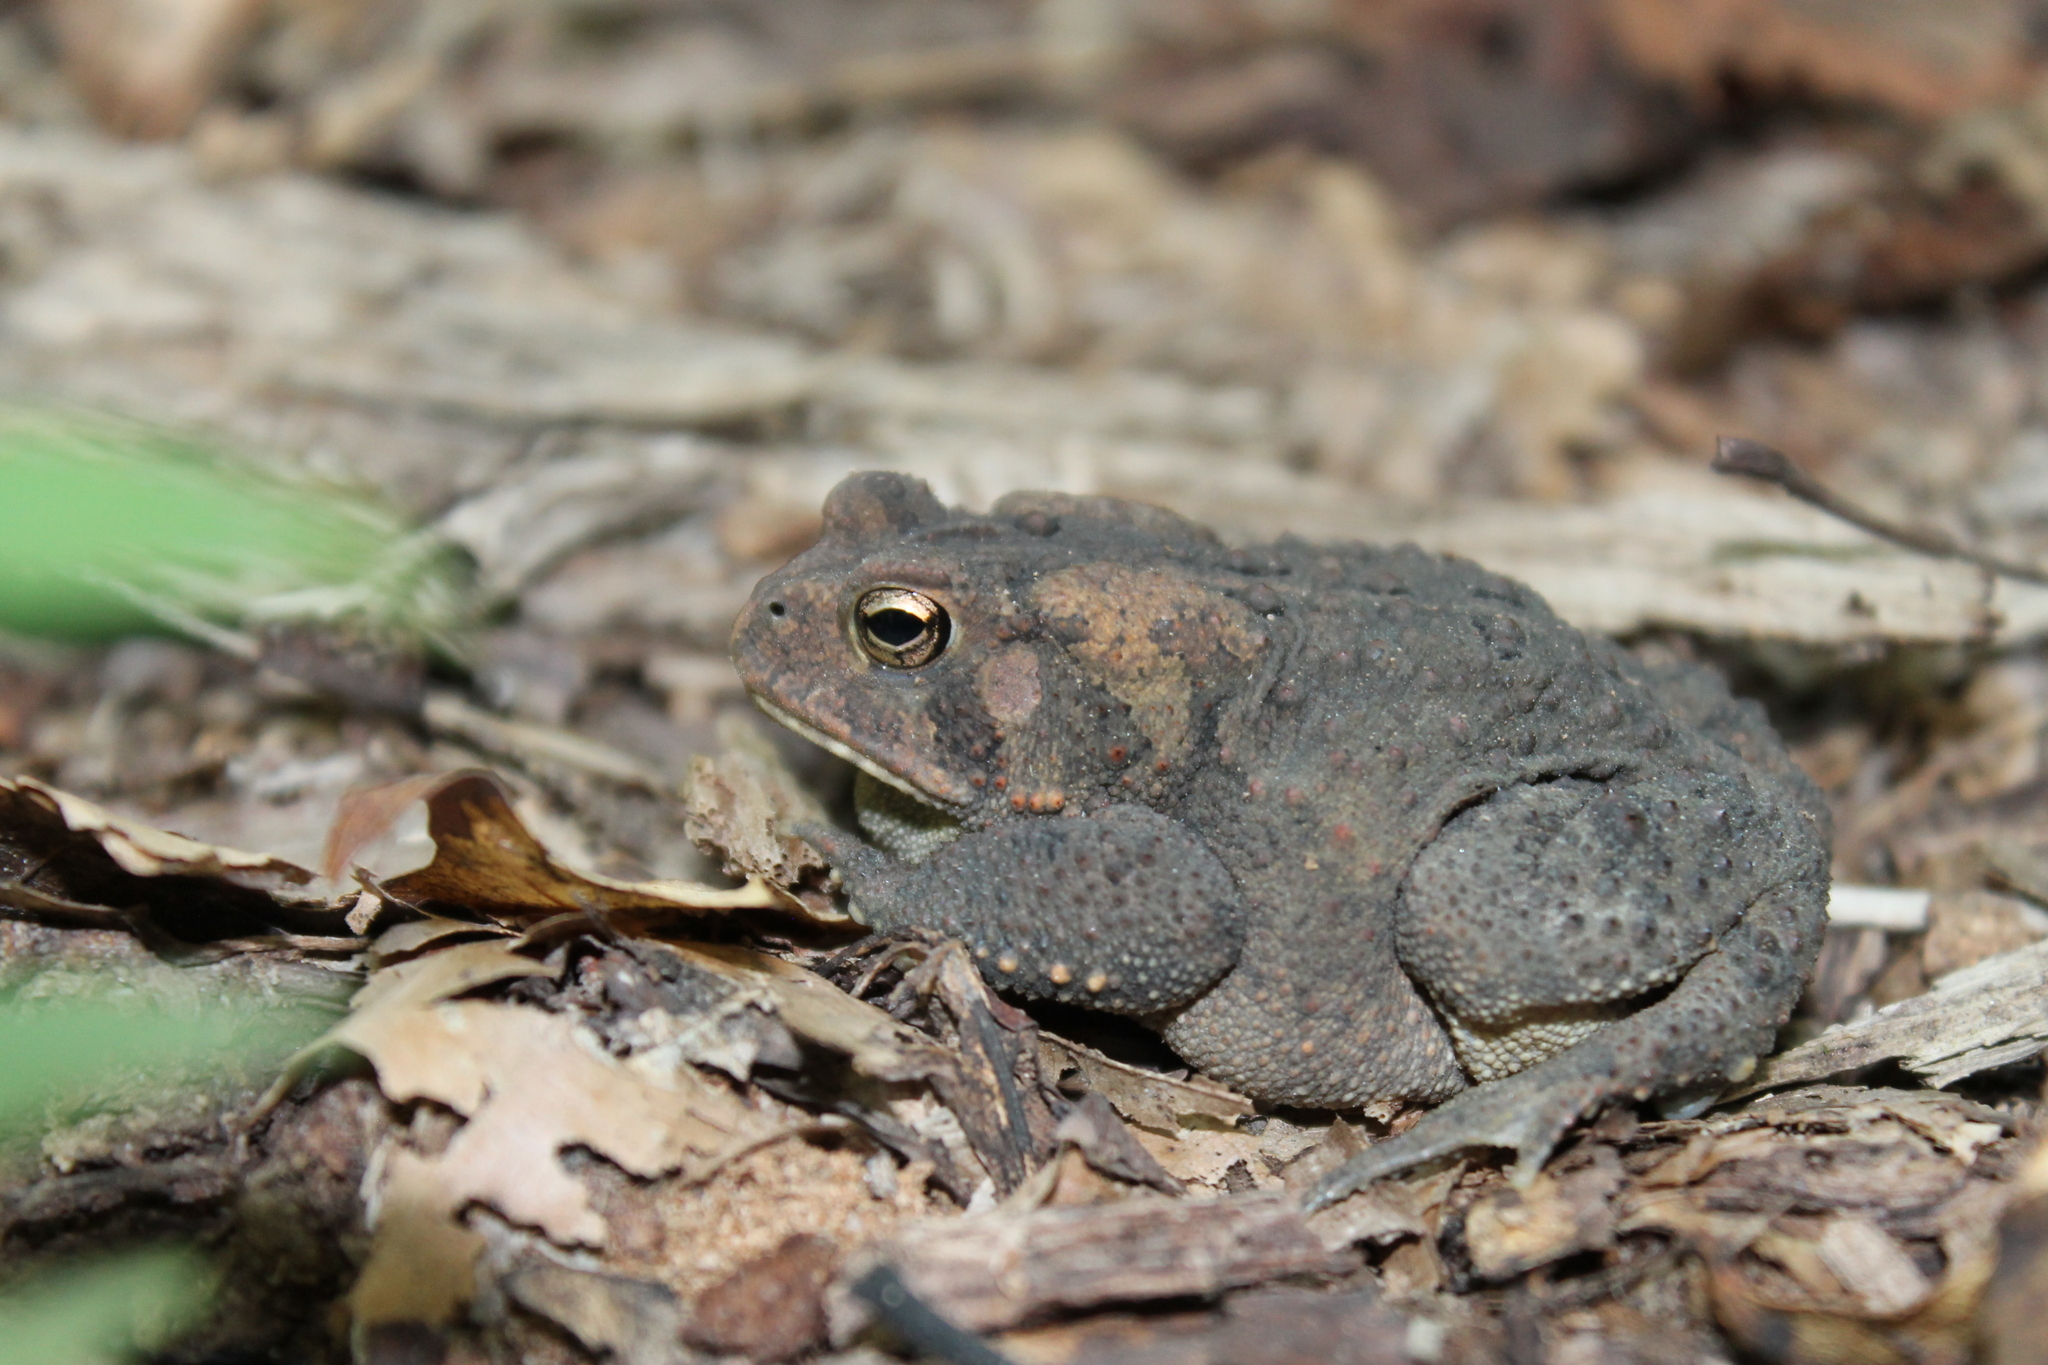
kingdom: Animalia
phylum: Chordata
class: Amphibia
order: Anura
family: Bufonidae
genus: Anaxyrus
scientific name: Anaxyrus americanus
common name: American toad
